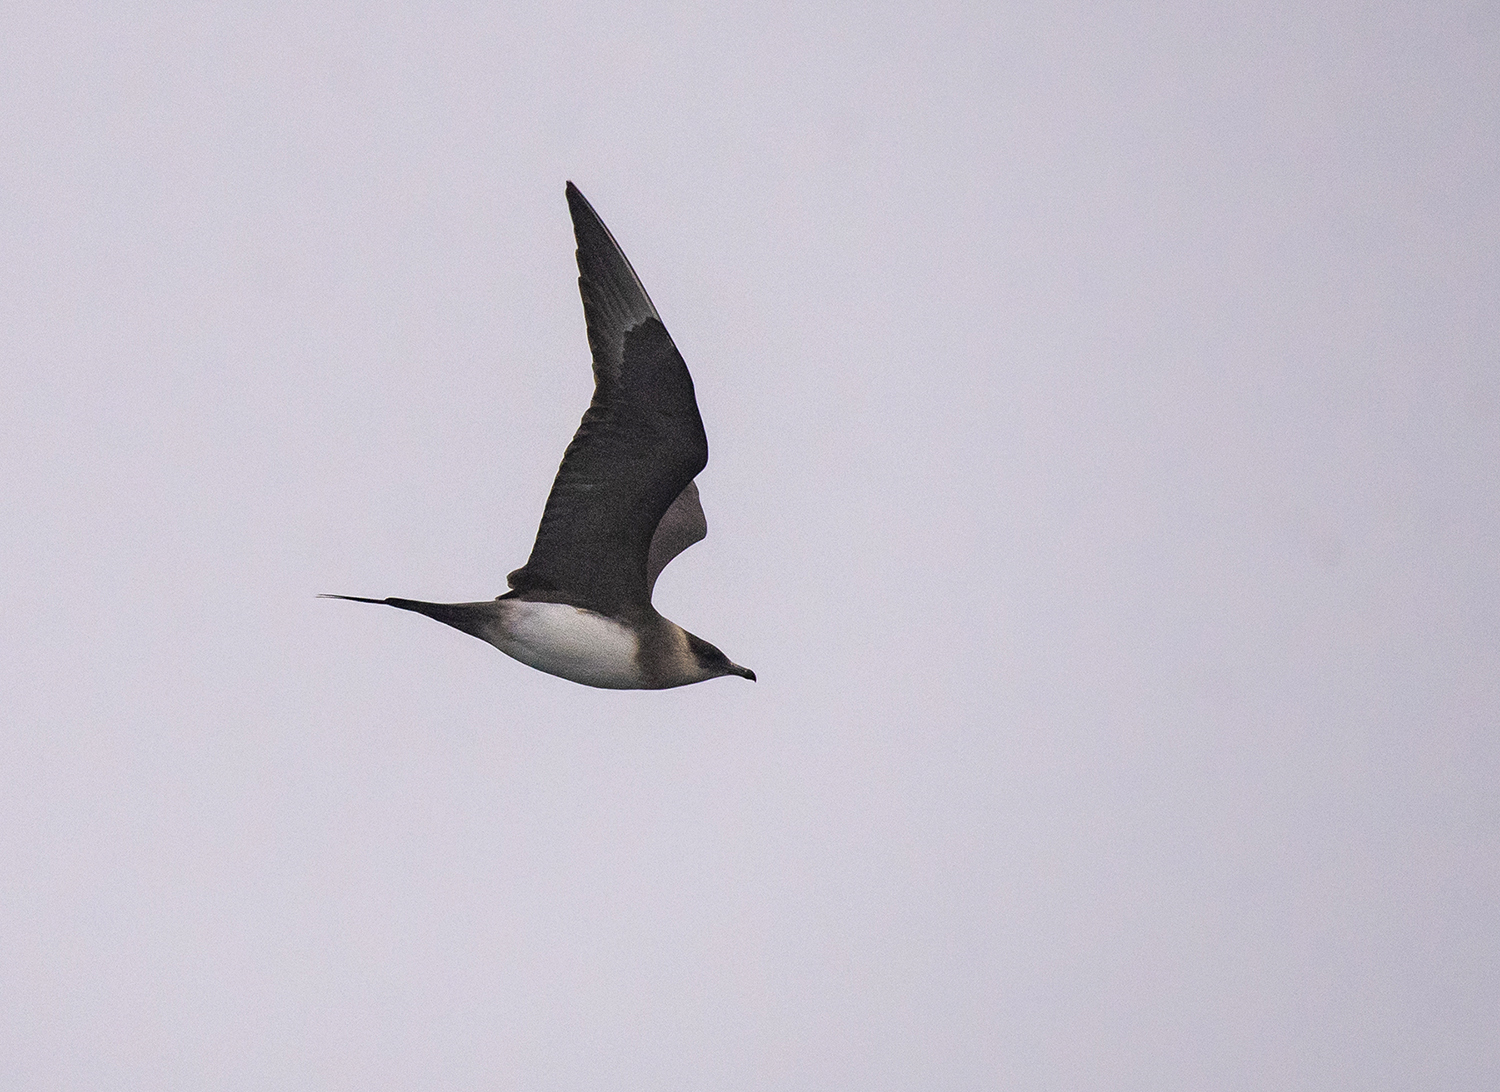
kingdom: Animalia
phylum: Chordata
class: Aves
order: Charadriiformes
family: Stercorariidae
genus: Stercorarius
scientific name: Stercorarius parasiticus
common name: Parasitic jaeger
